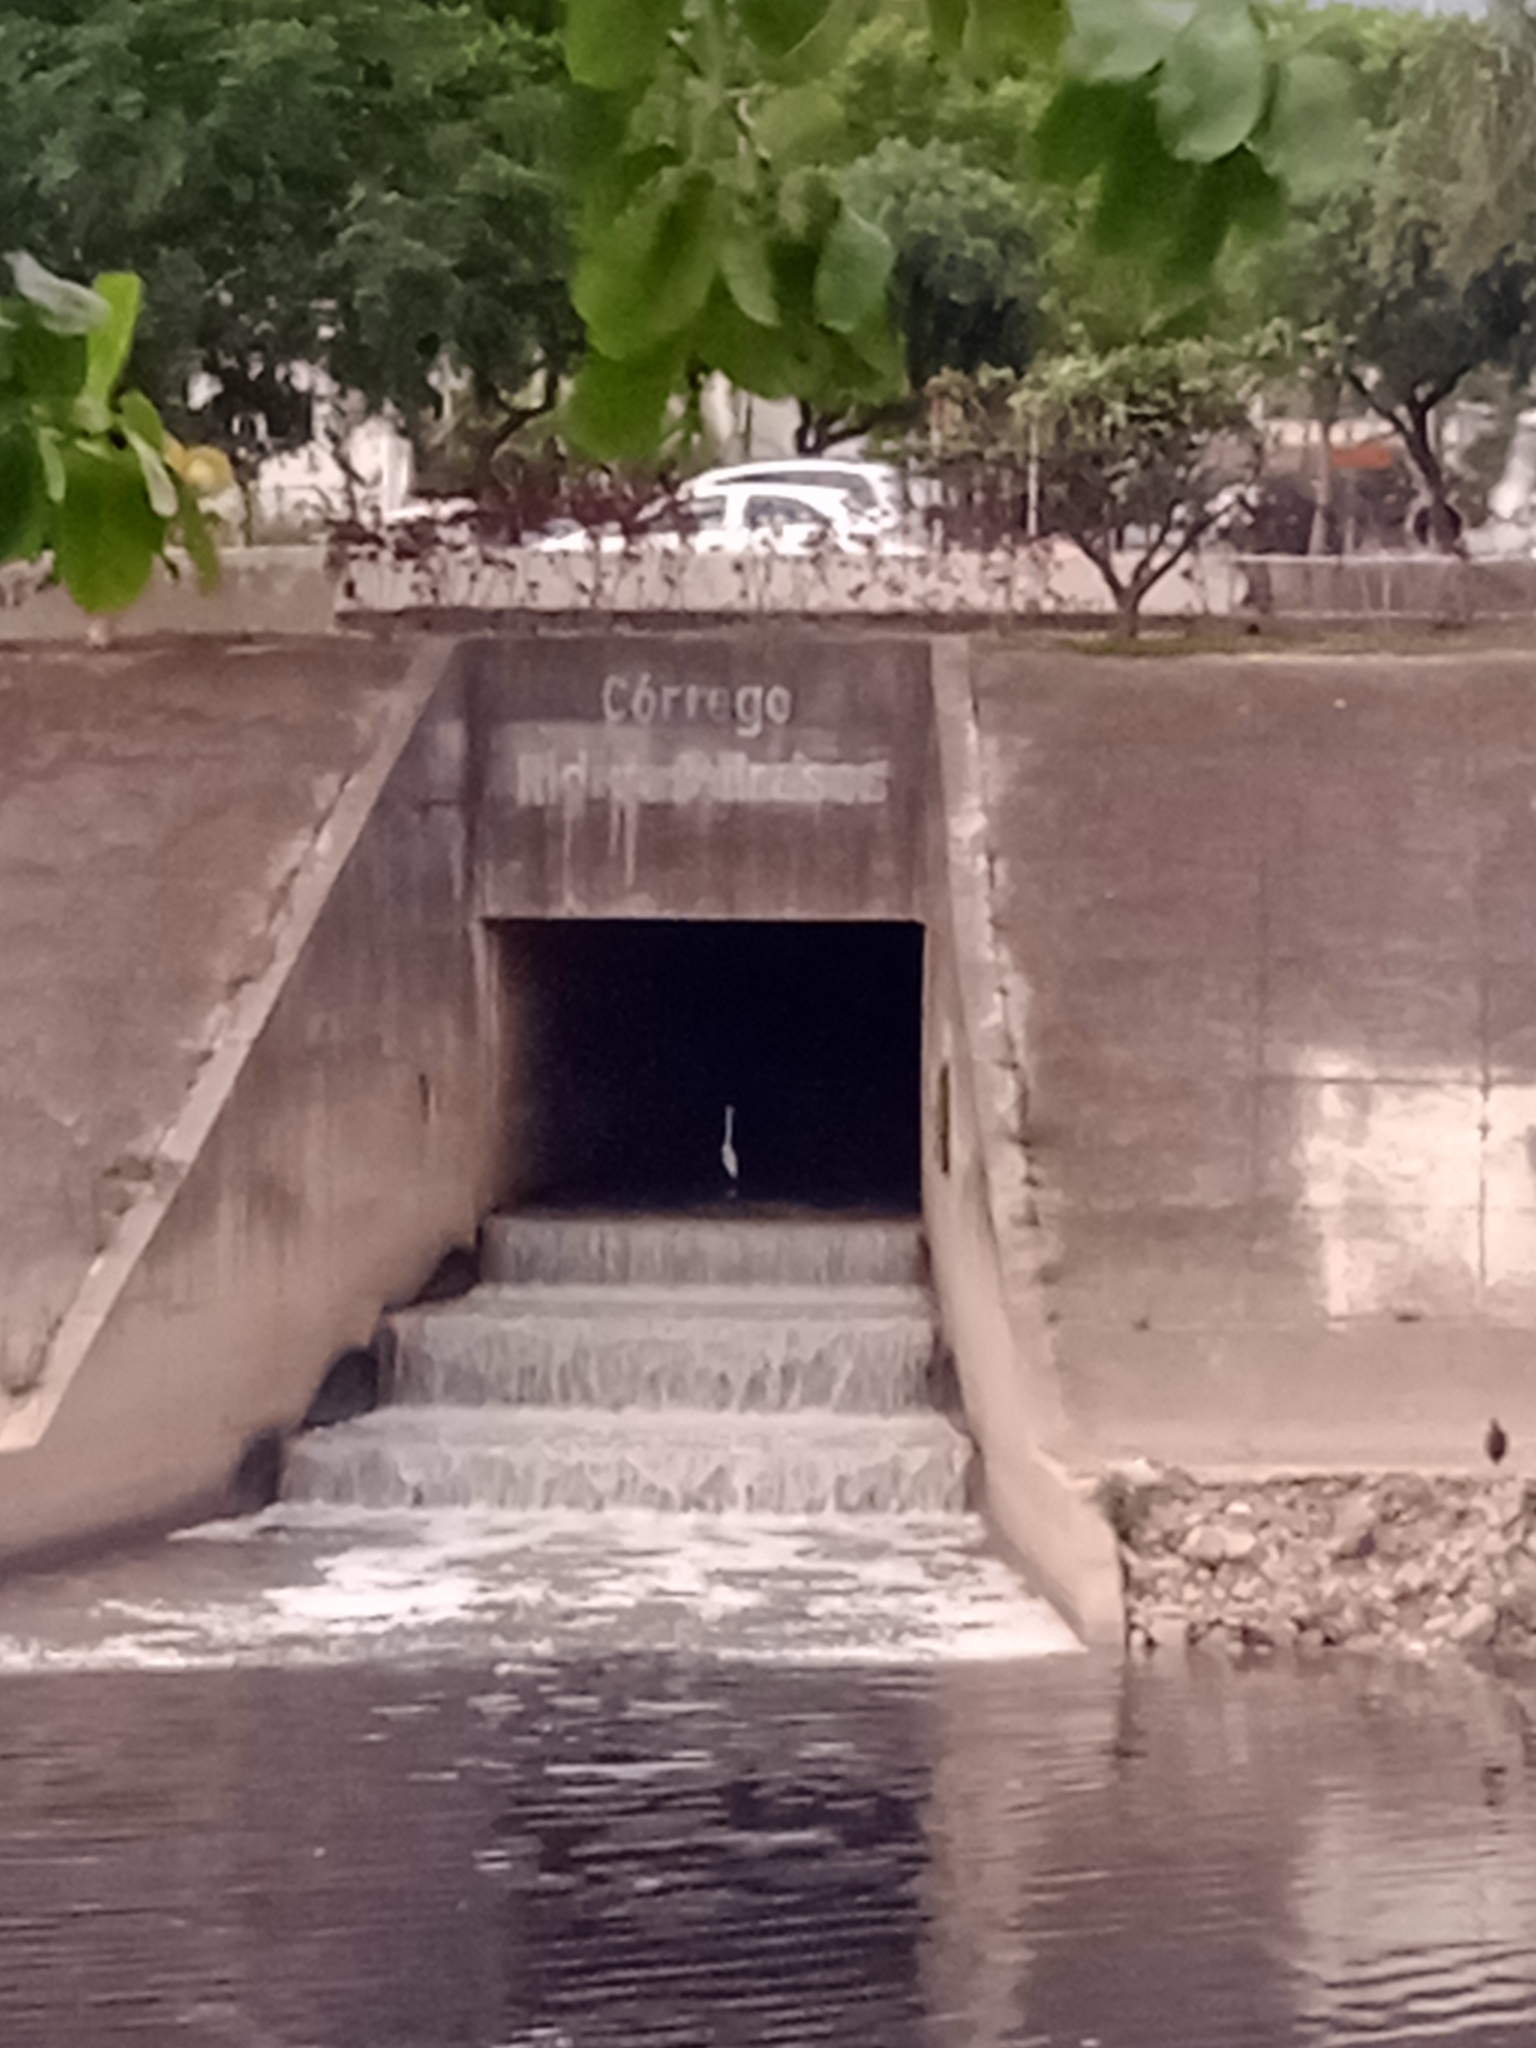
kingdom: Animalia
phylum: Chordata
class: Aves
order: Pelecaniformes
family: Ardeidae
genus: Ardea
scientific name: Ardea alba
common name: Great egret
